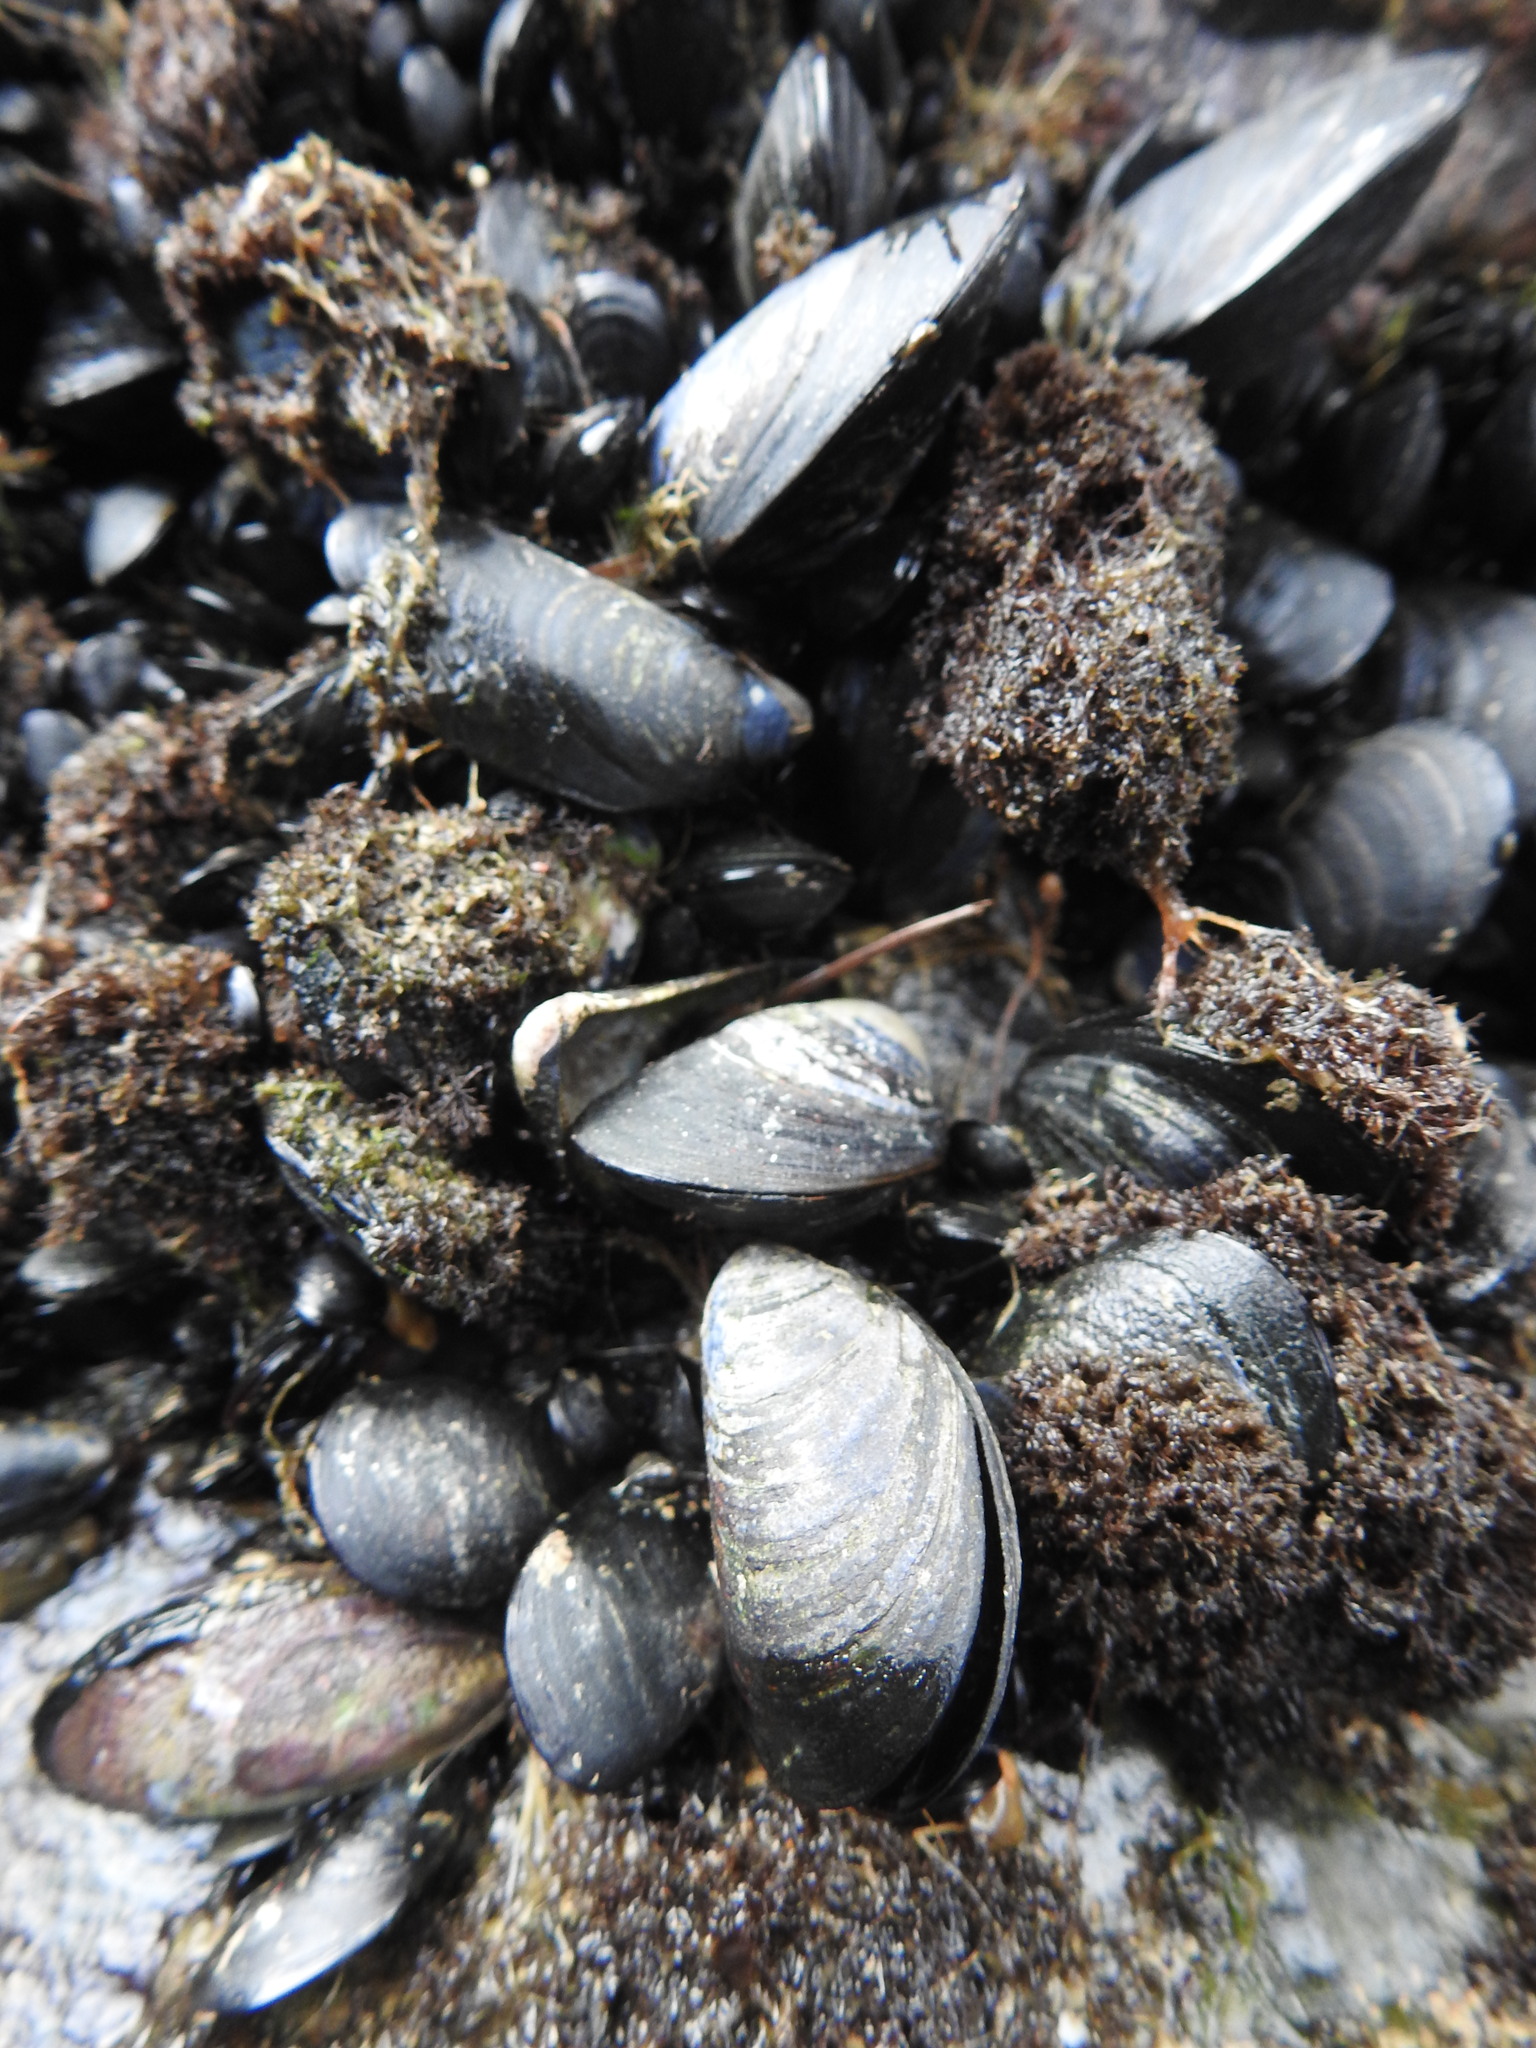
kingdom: Animalia
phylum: Mollusca
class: Bivalvia
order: Mytilida
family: Mytilidae
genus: Mytilus
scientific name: Mytilus chilensis
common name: Chilean mussel
